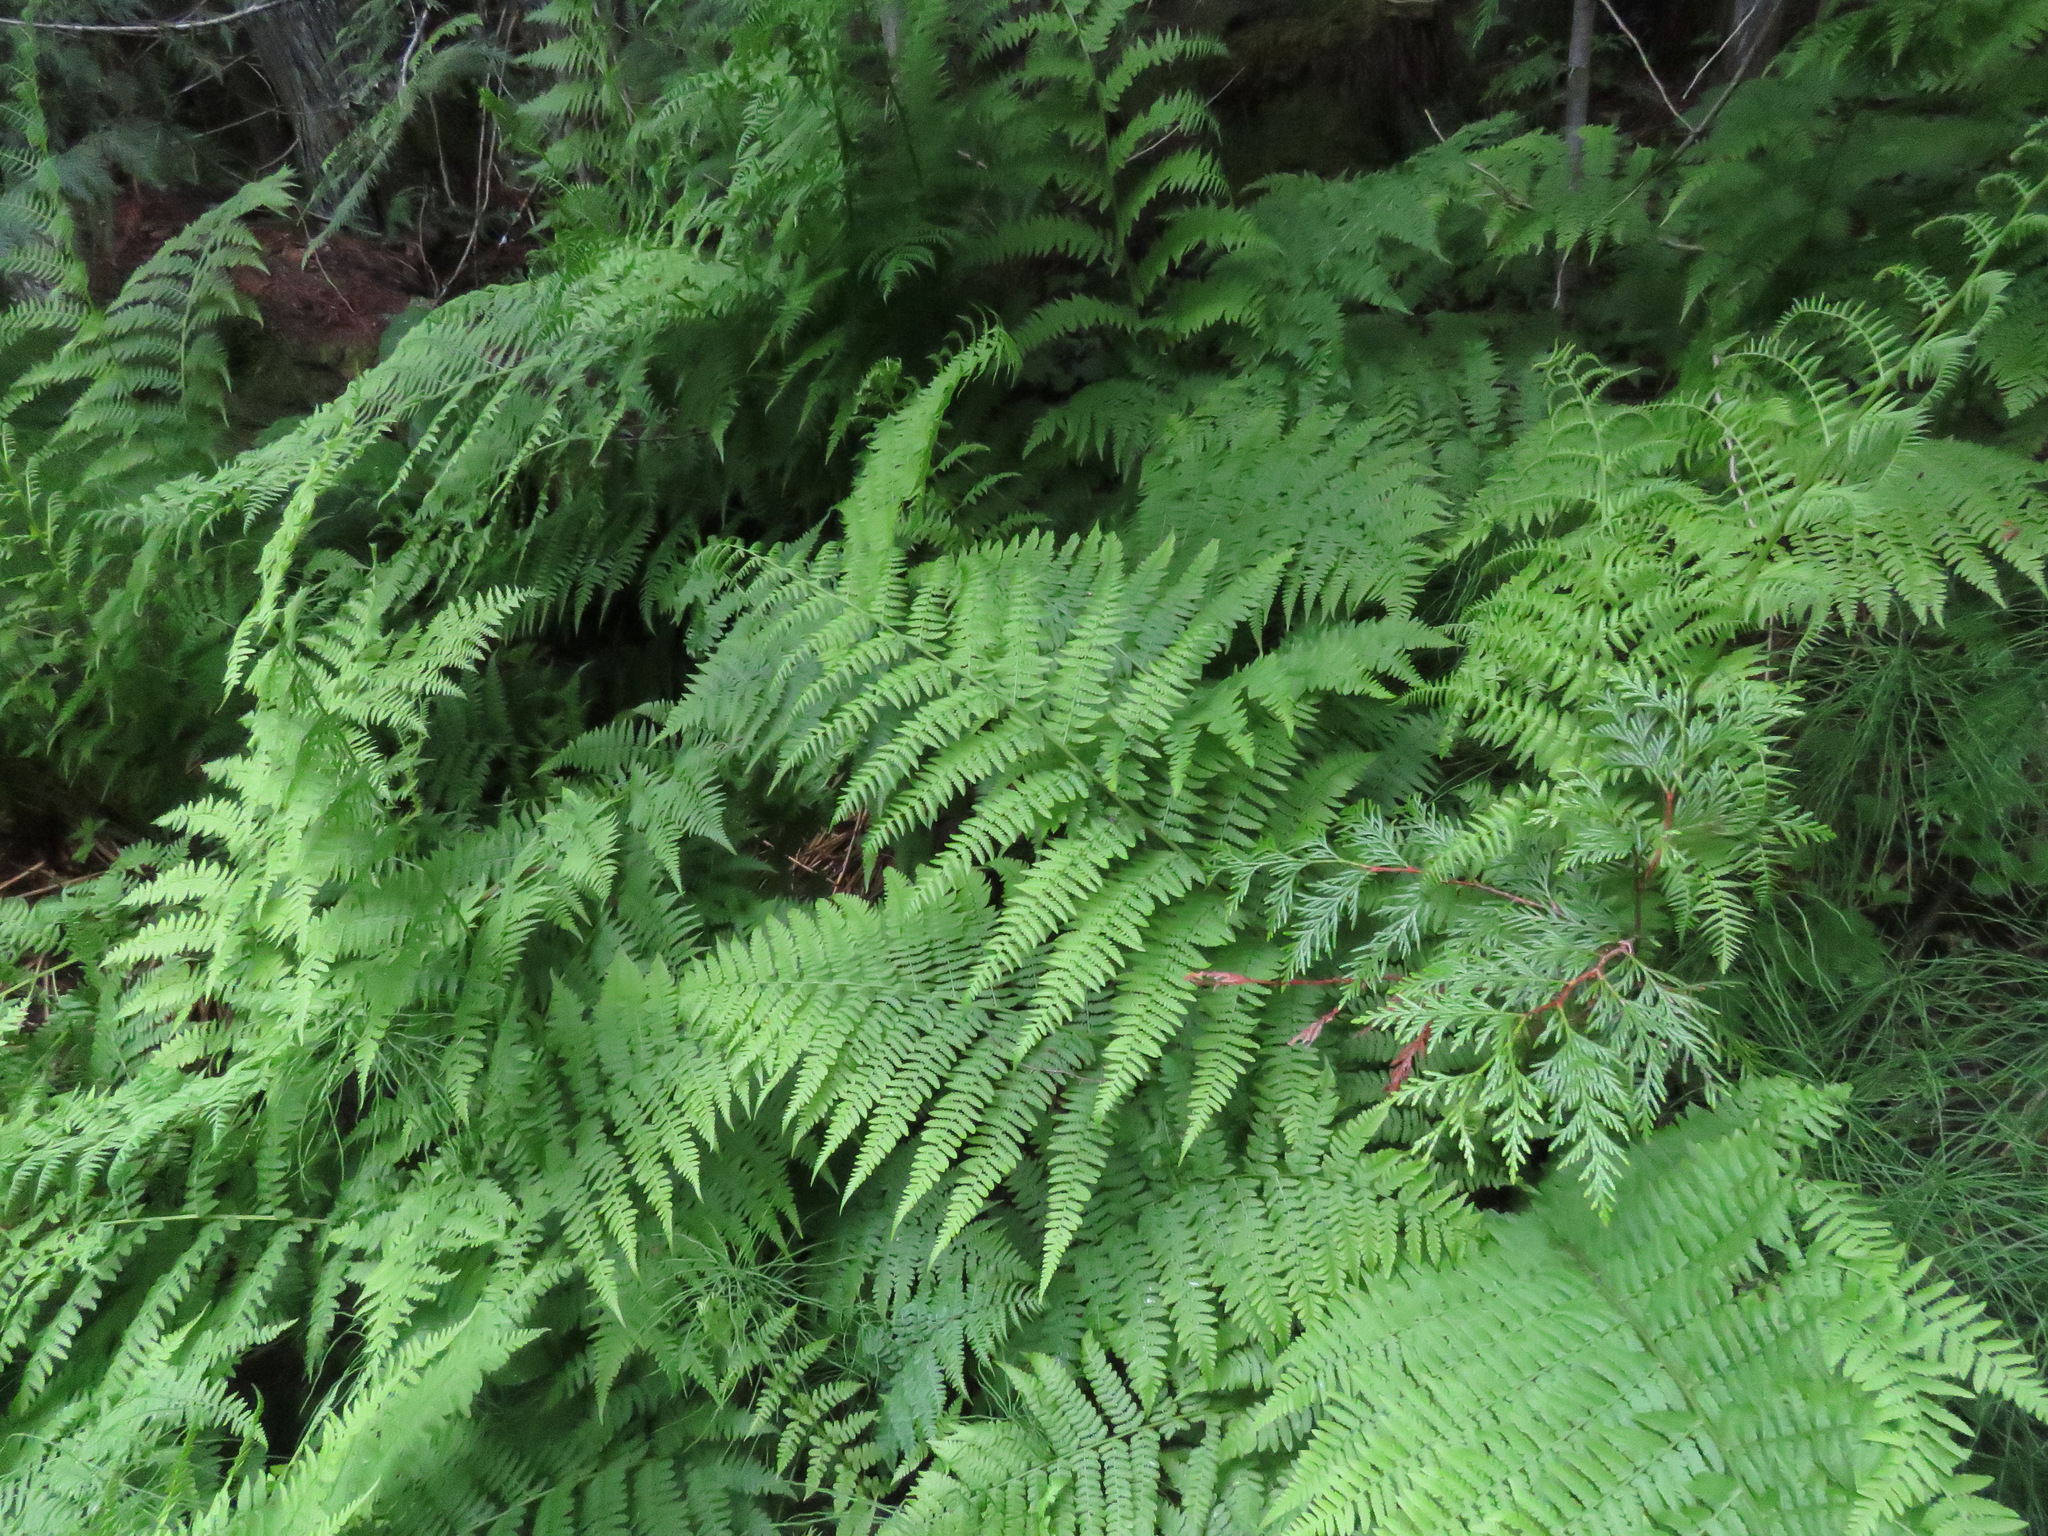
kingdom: Plantae
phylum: Tracheophyta
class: Polypodiopsida
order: Polypodiales
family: Athyriaceae
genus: Athyrium
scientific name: Athyrium filix-femina
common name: Lady fern
